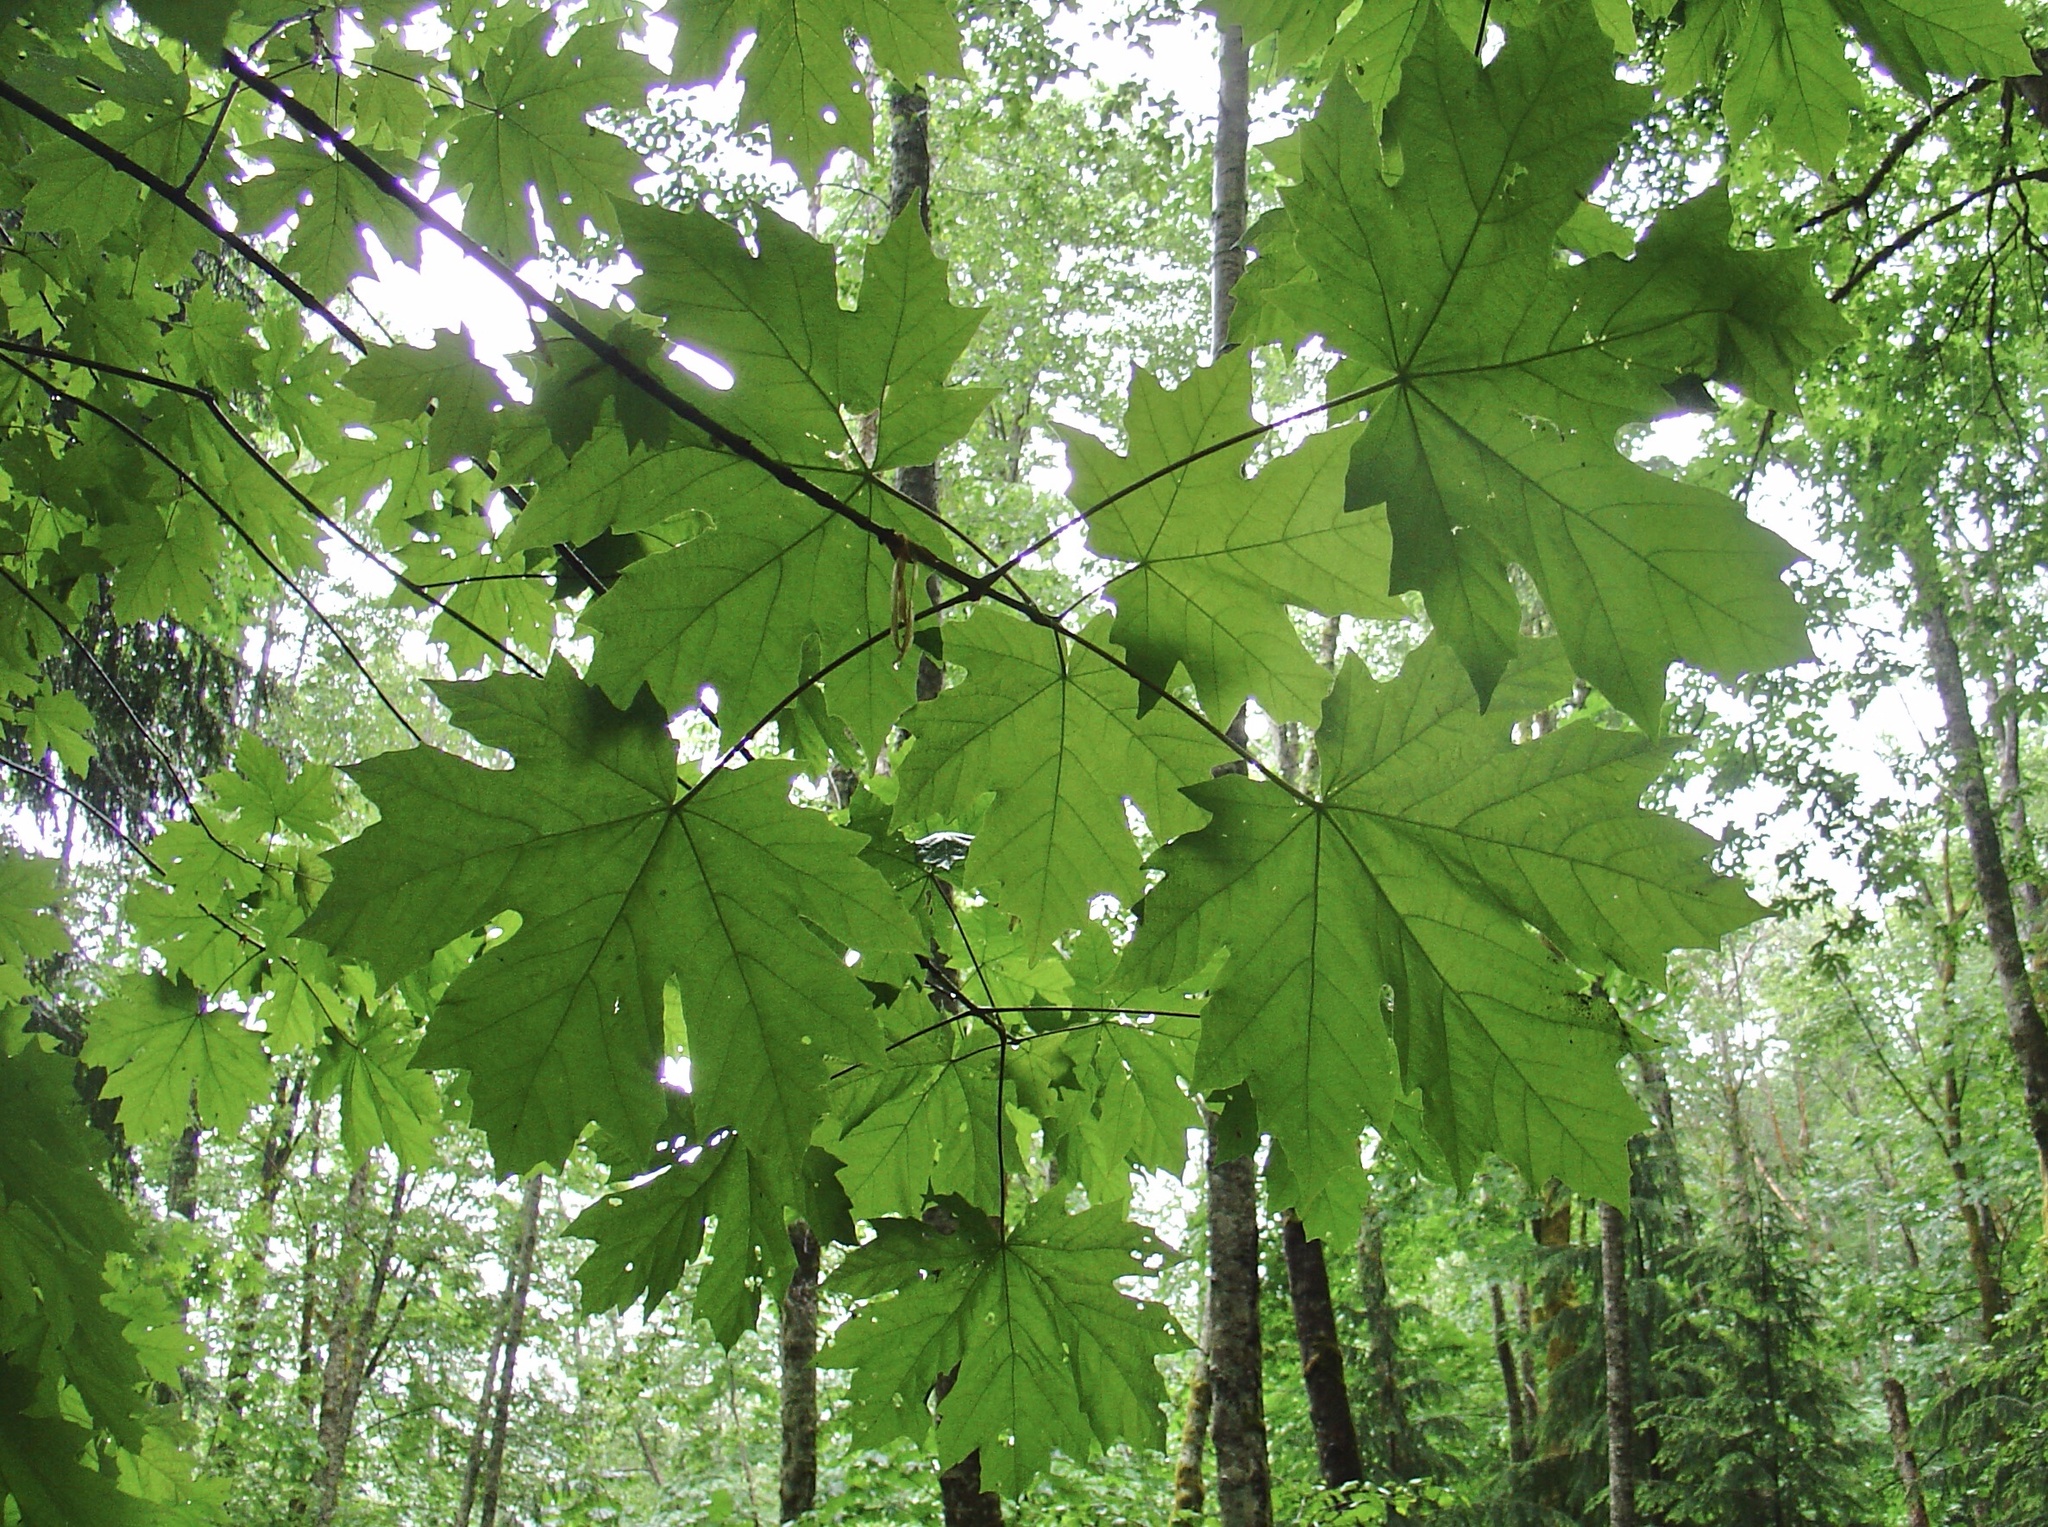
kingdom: Plantae
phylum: Tracheophyta
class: Magnoliopsida
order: Sapindales
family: Sapindaceae
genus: Acer
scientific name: Acer macrophyllum
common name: Oregon maple
